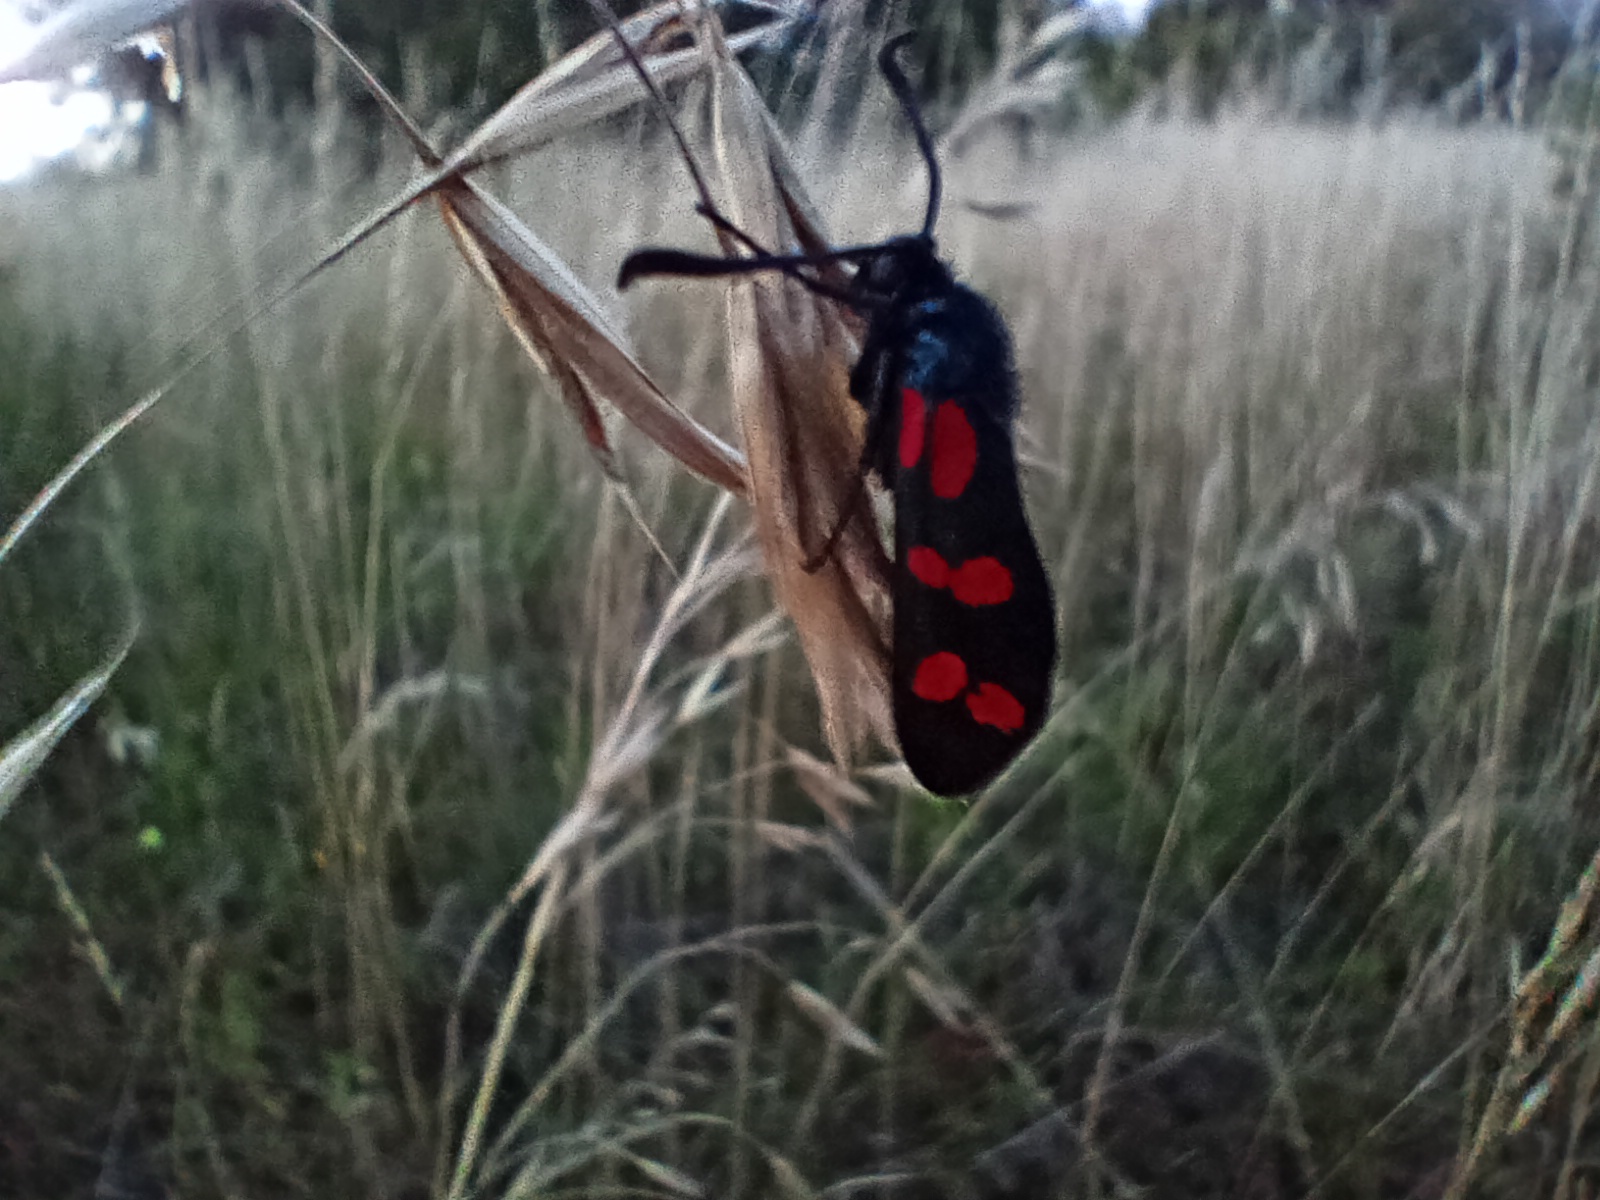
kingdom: Animalia
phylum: Arthropoda
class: Insecta
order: Lepidoptera
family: Zygaenidae
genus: Zygaena
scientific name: Zygaena filipendulae
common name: Six-spot burnet
